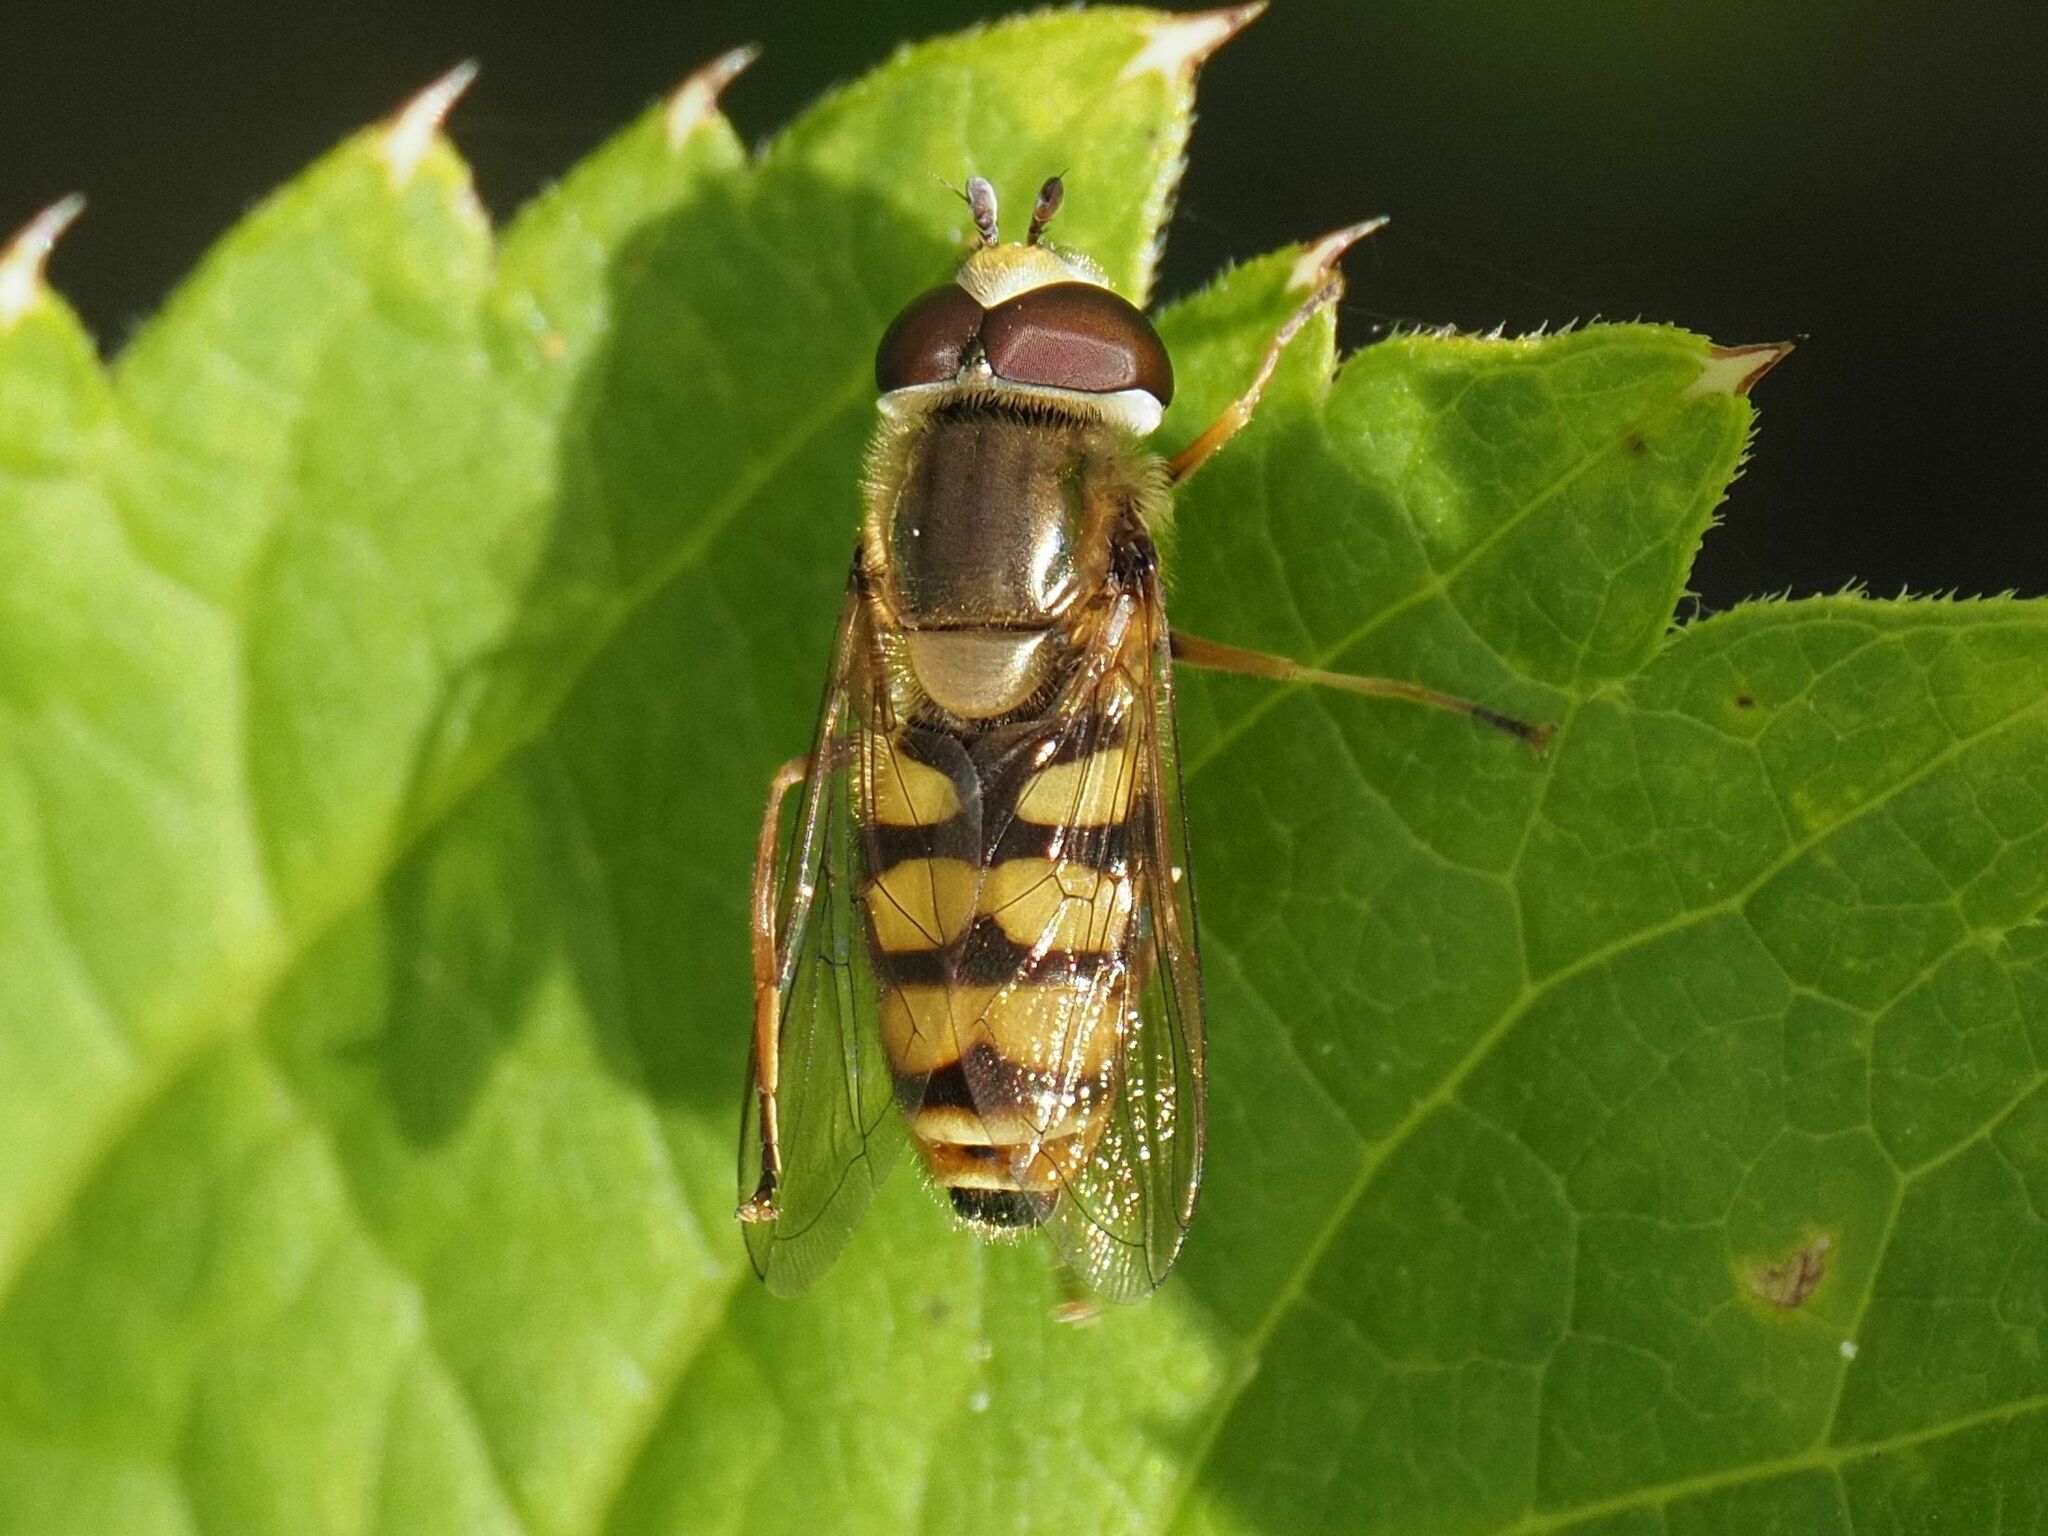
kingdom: Animalia
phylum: Arthropoda
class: Insecta
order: Diptera
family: Syrphidae
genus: Eupeodes
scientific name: Eupeodes corollae
